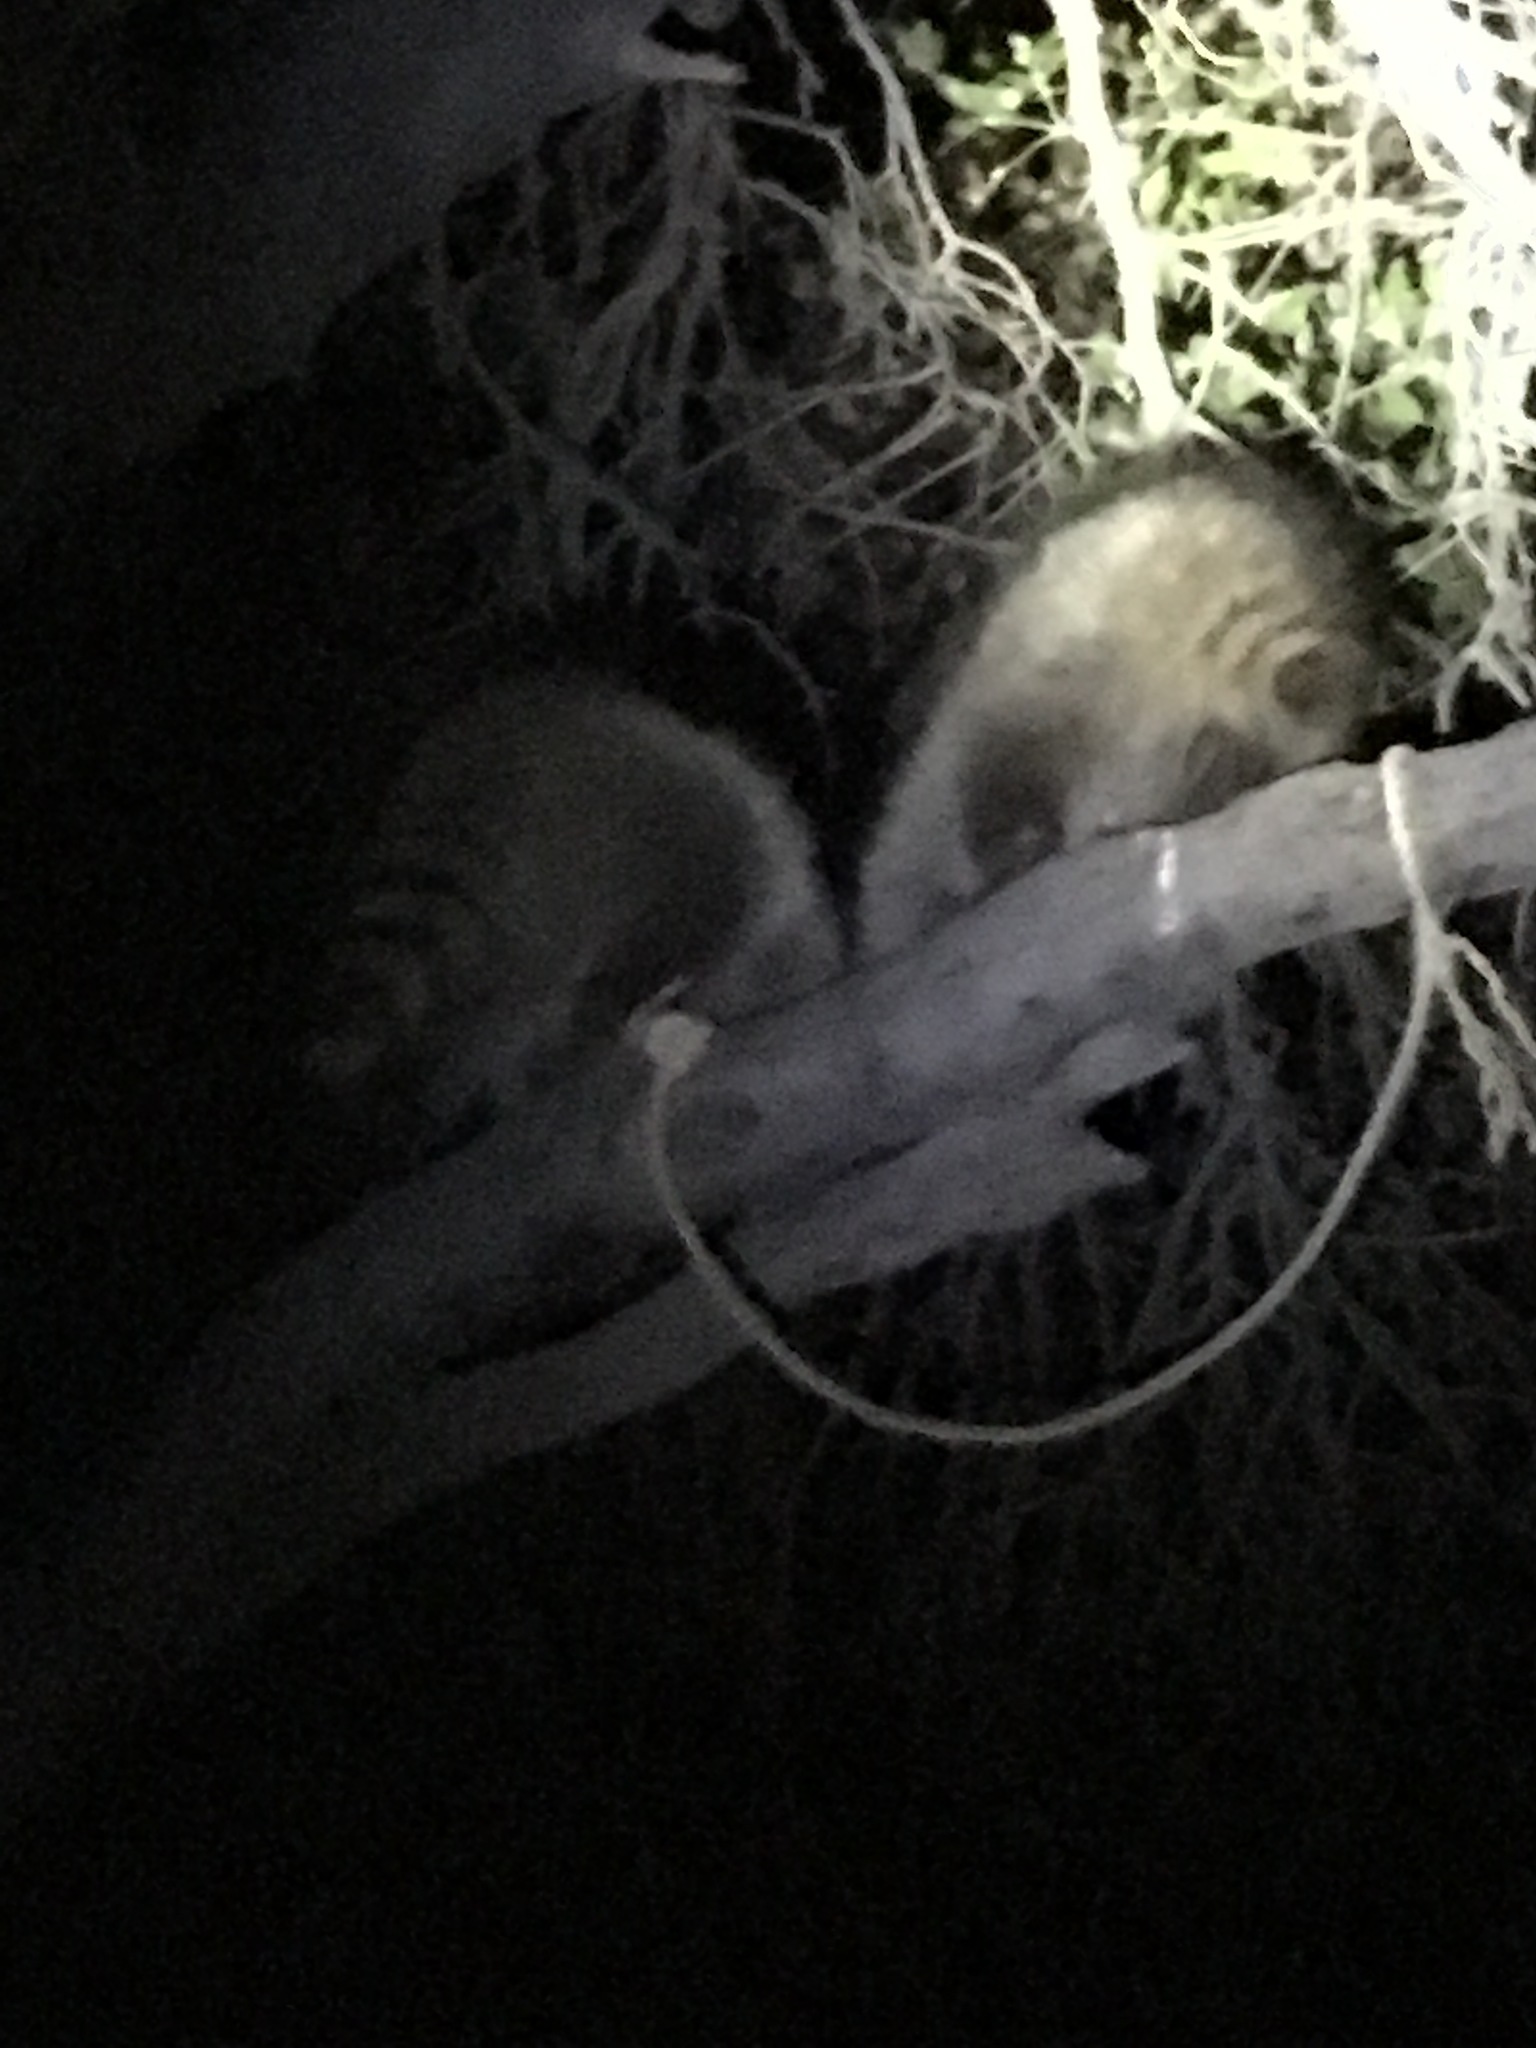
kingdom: Animalia
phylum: Chordata
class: Mammalia
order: Carnivora
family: Procyonidae
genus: Procyon
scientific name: Procyon lotor
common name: Raccoon
